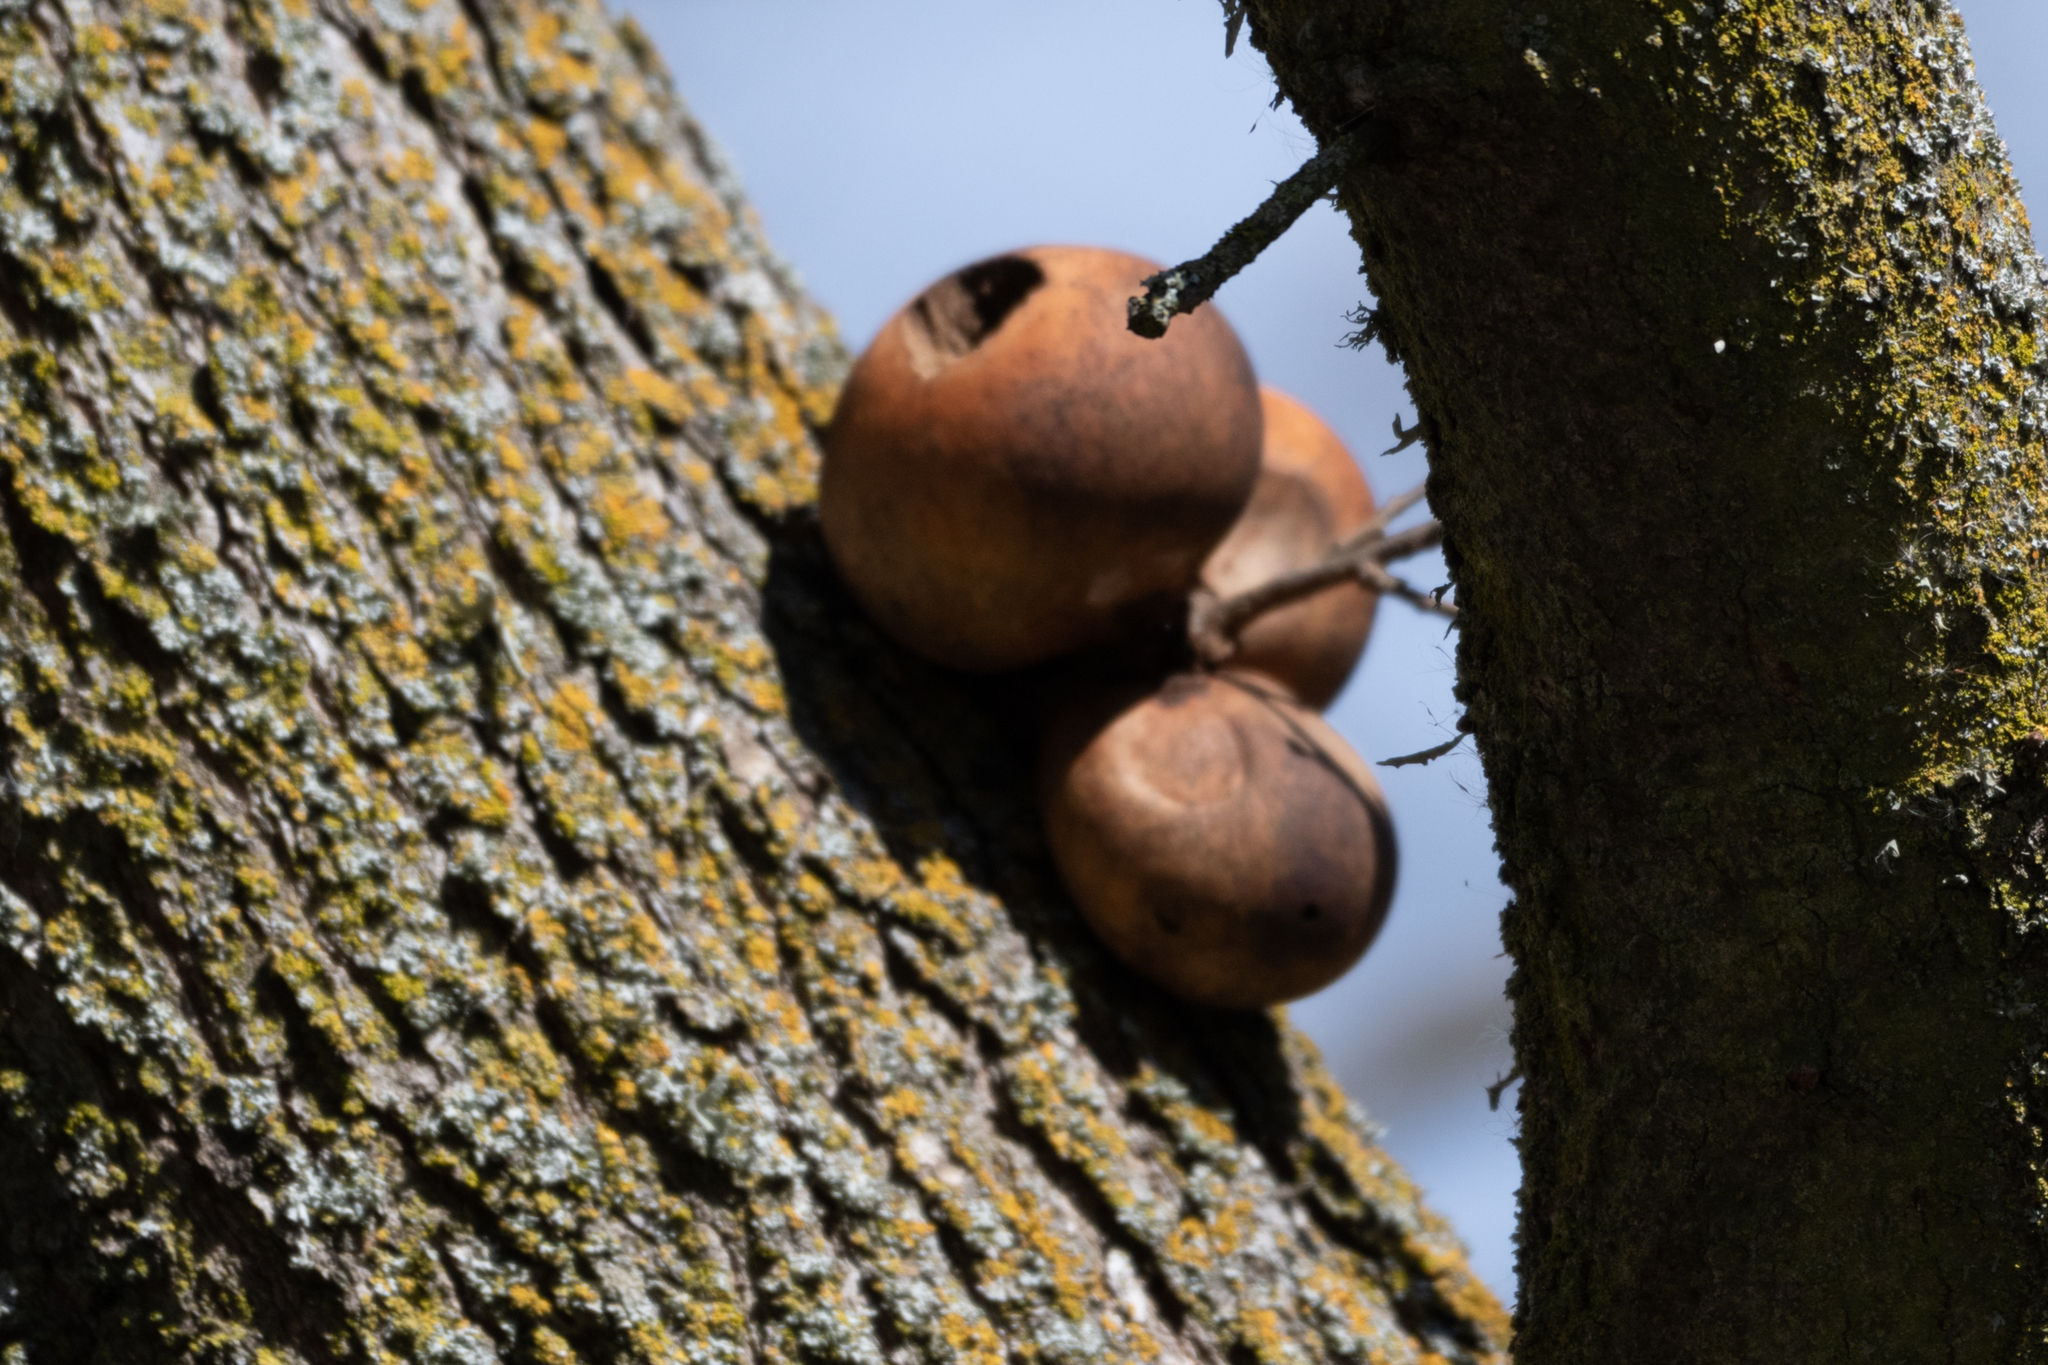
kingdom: Animalia
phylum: Arthropoda
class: Insecta
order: Hymenoptera
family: Cynipidae
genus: Andricus
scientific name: Andricus quercuscalifornicus
